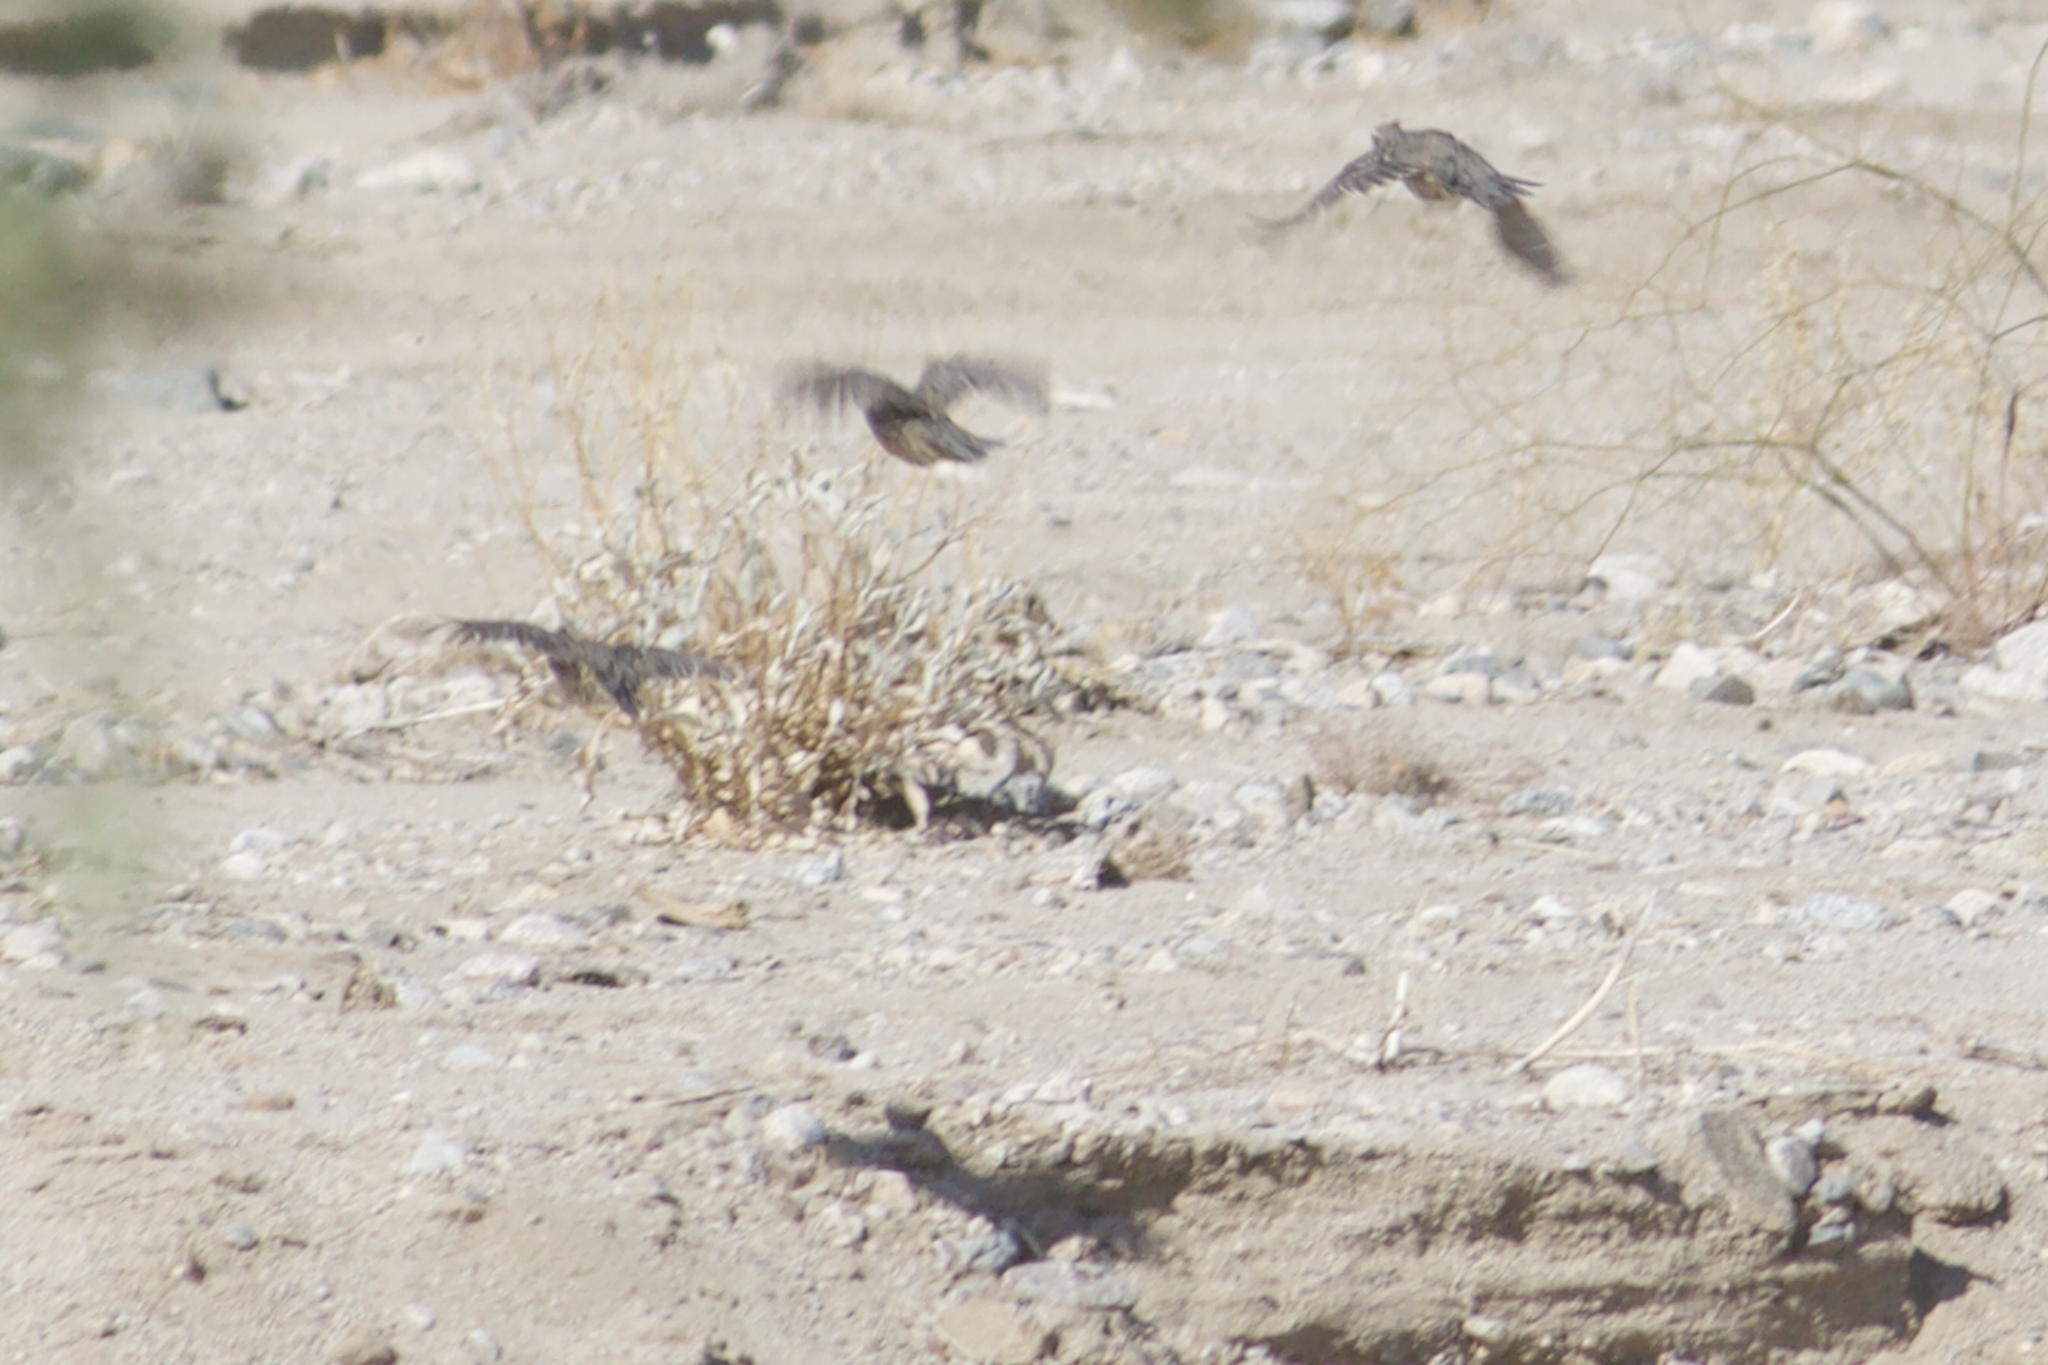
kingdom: Animalia
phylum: Chordata
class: Aves
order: Galliformes
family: Odontophoridae
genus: Callipepla
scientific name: Callipepla gambelii
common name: Gambel's quail
